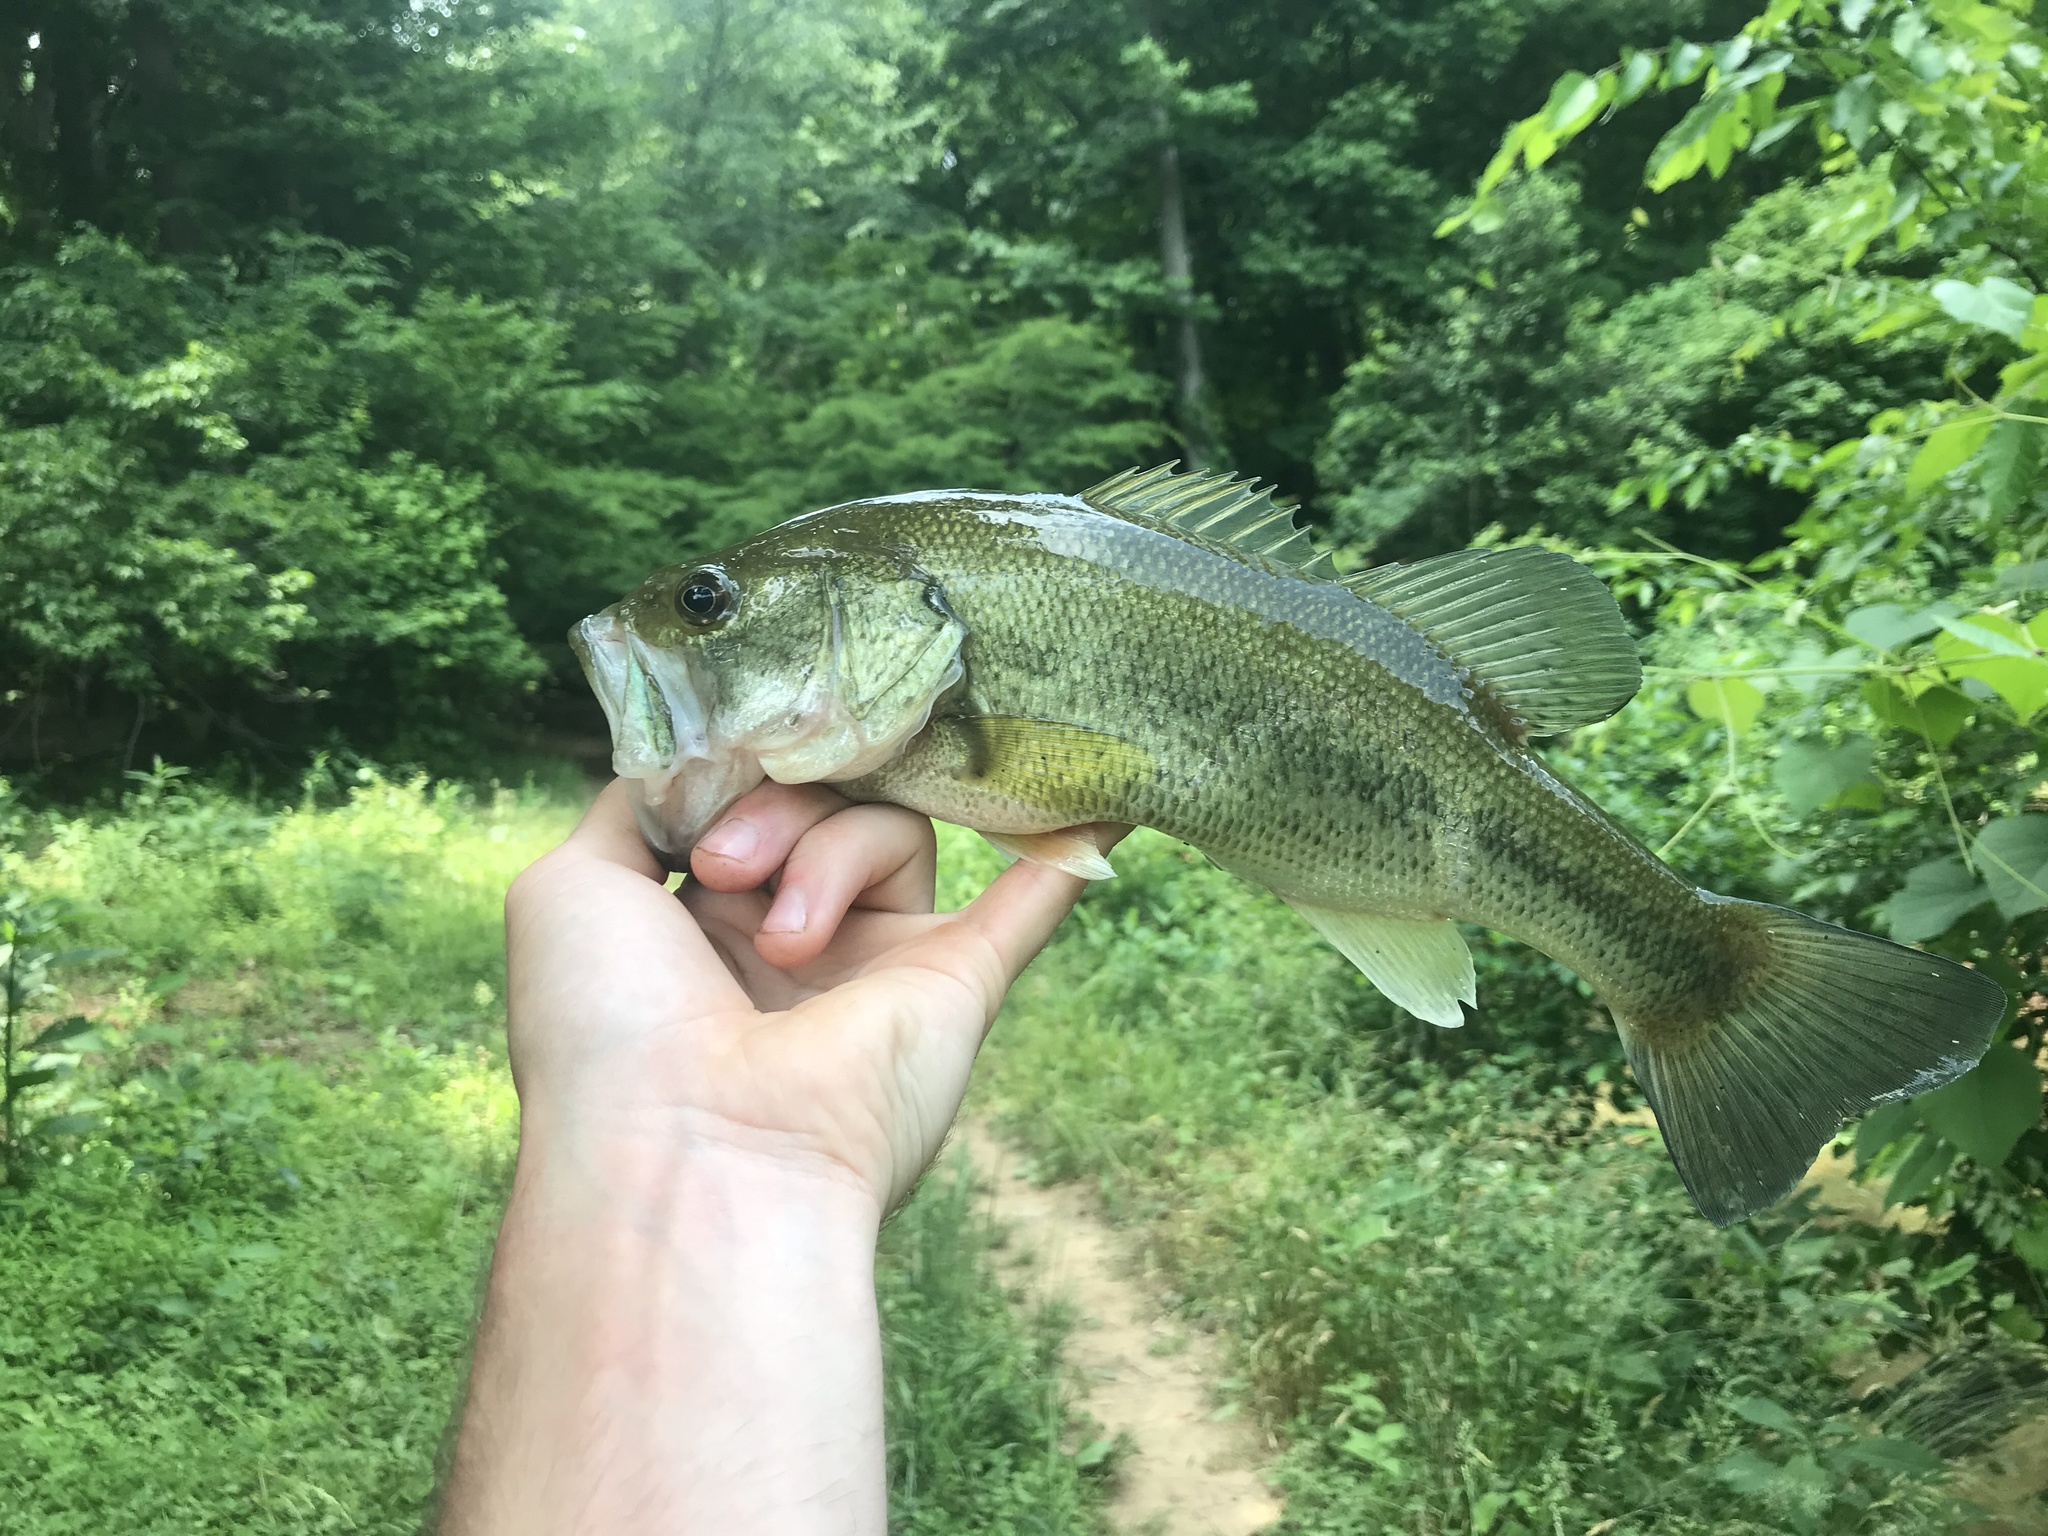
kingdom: Animalia
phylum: Chordata
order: Perciformes
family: Centrarchidae
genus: Micropterus
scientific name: Micropterus salmoides
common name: Largemouth bass
